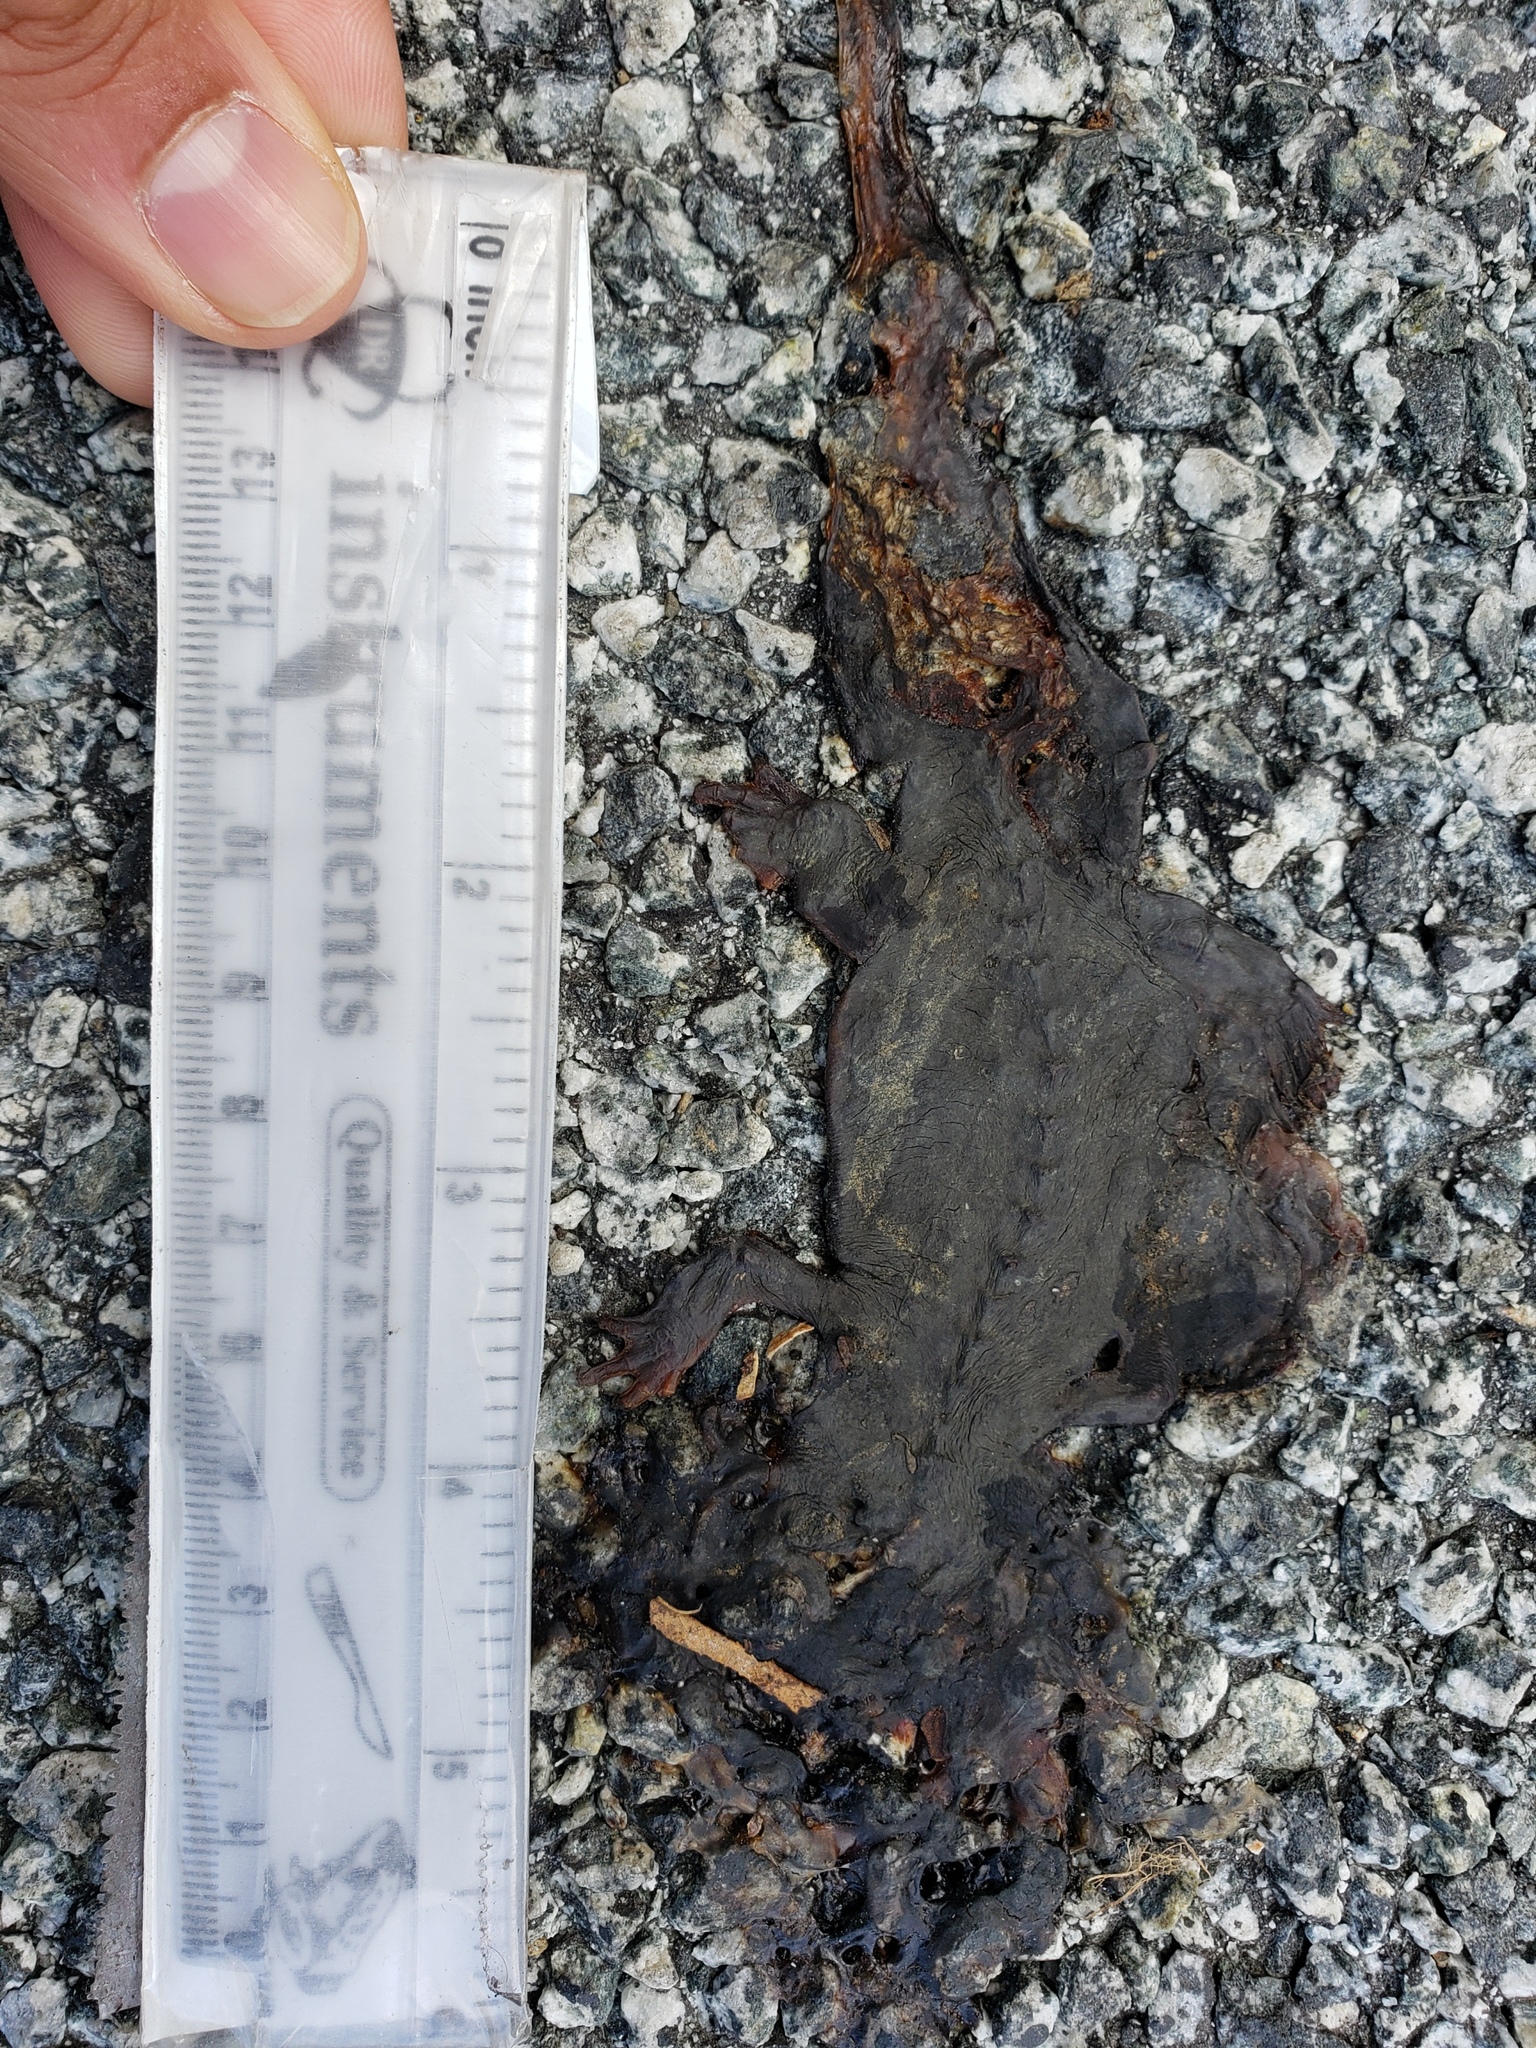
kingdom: Animalia
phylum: Chordata
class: Amphibia
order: Caudata
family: Salamandridae
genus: Taricha
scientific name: Taricha
